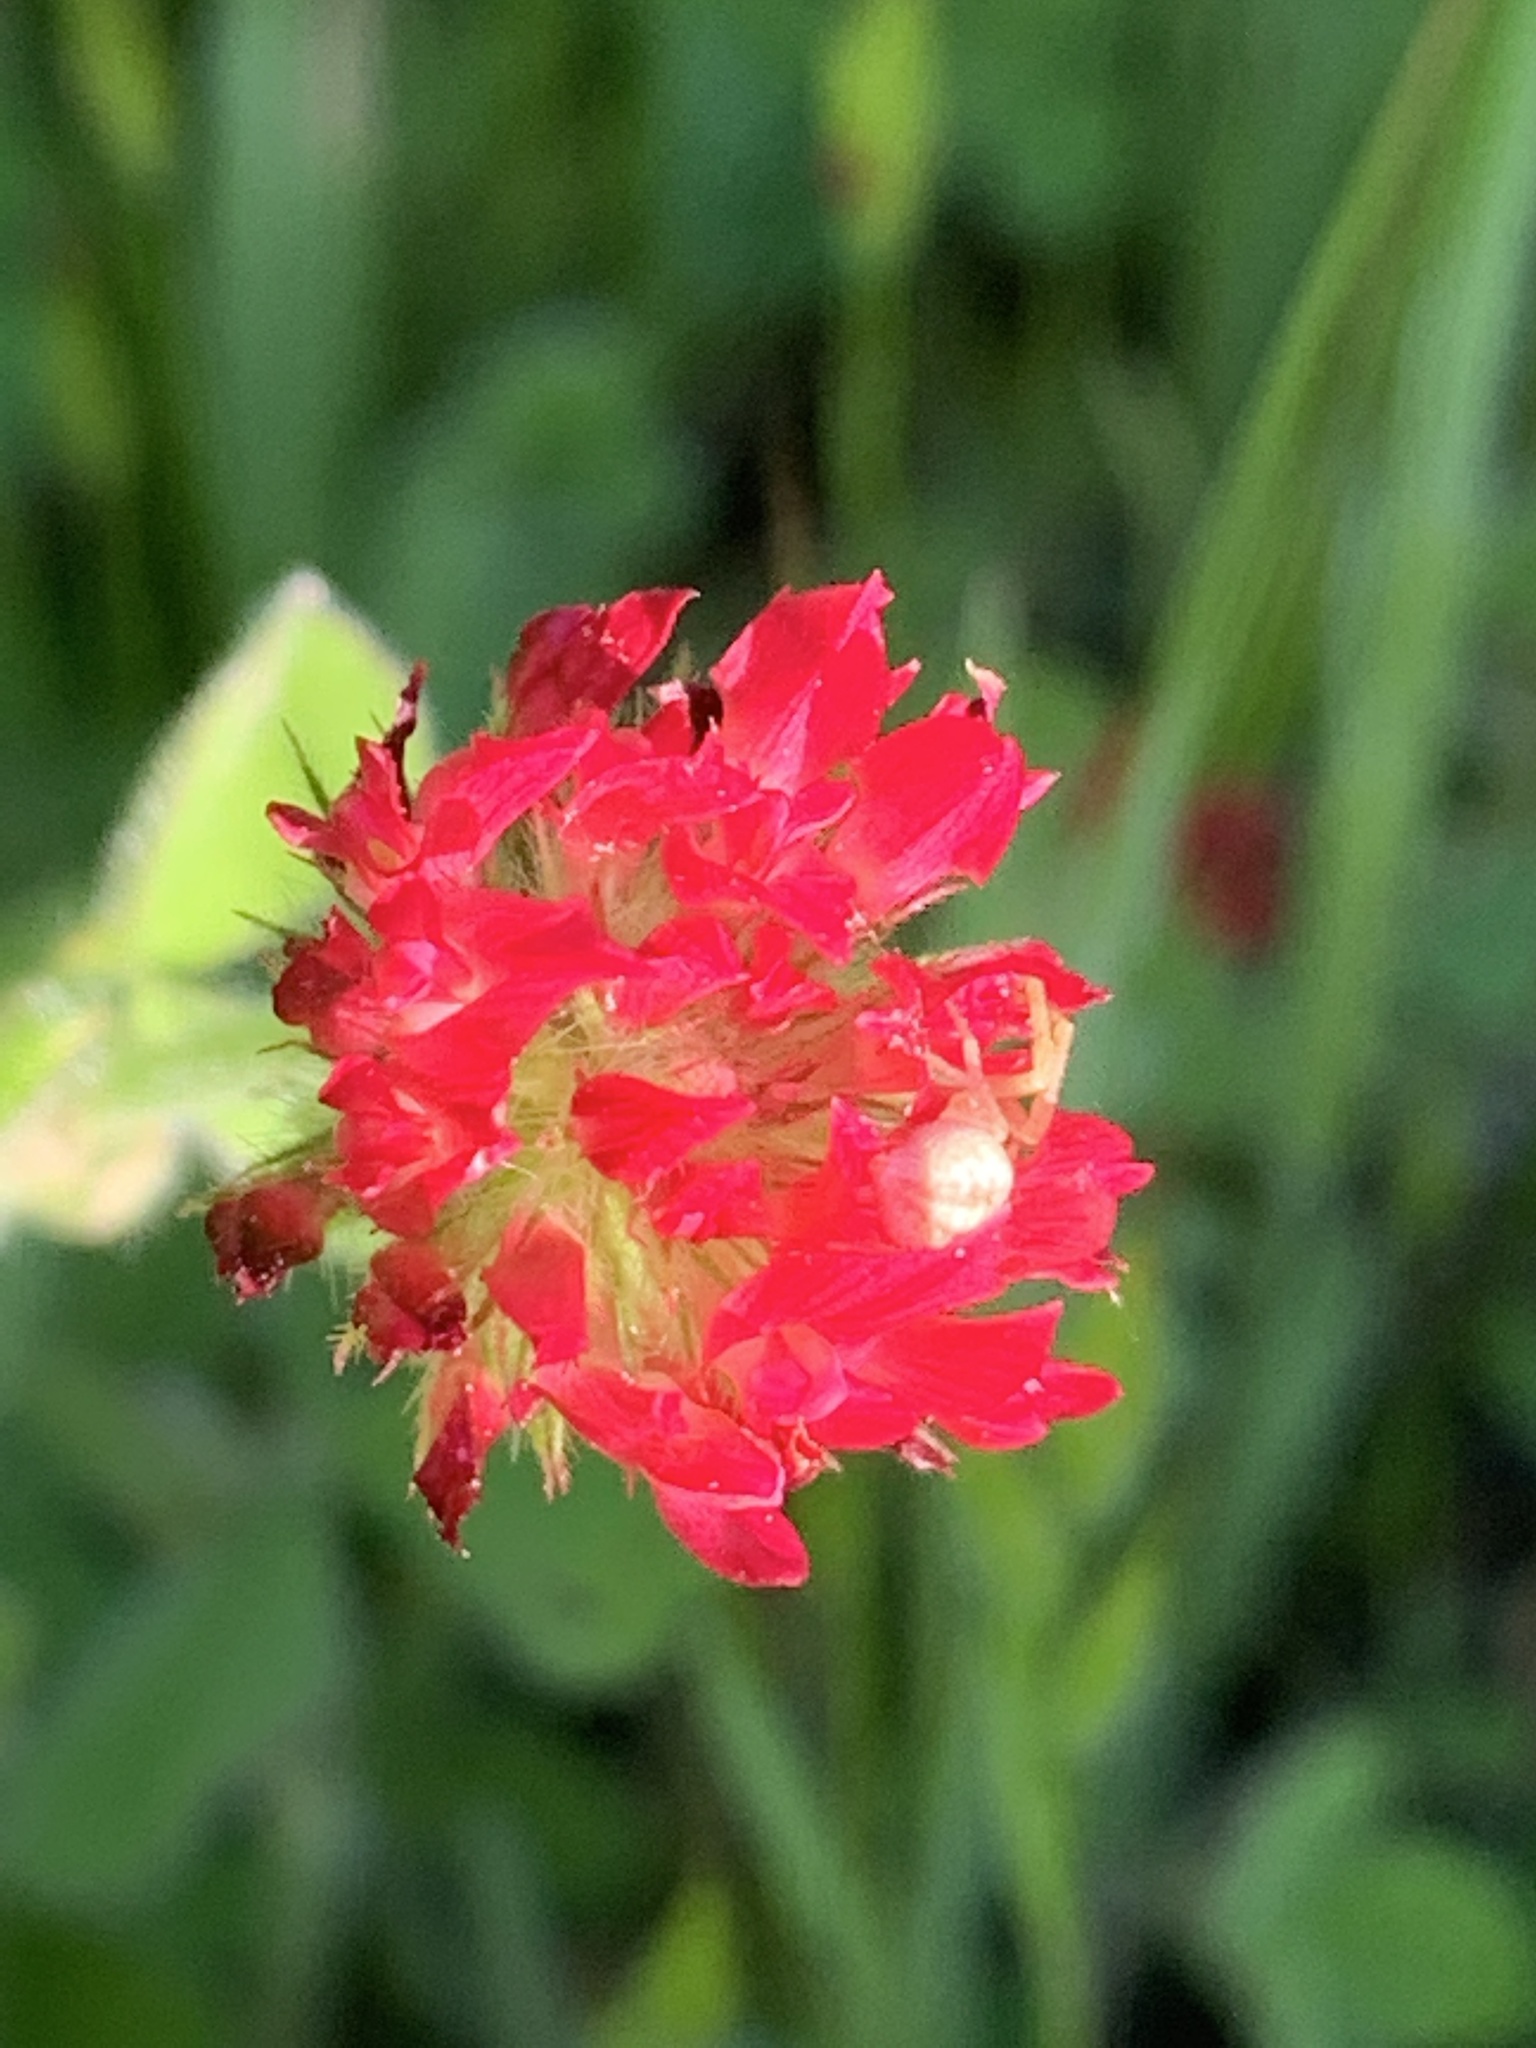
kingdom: Plantae
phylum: Tracheophyta
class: Magnoliopsida
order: Fabales
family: Fabaceae
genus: Trifolium
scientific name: Trifolium incarnatum
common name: Crimson clover
